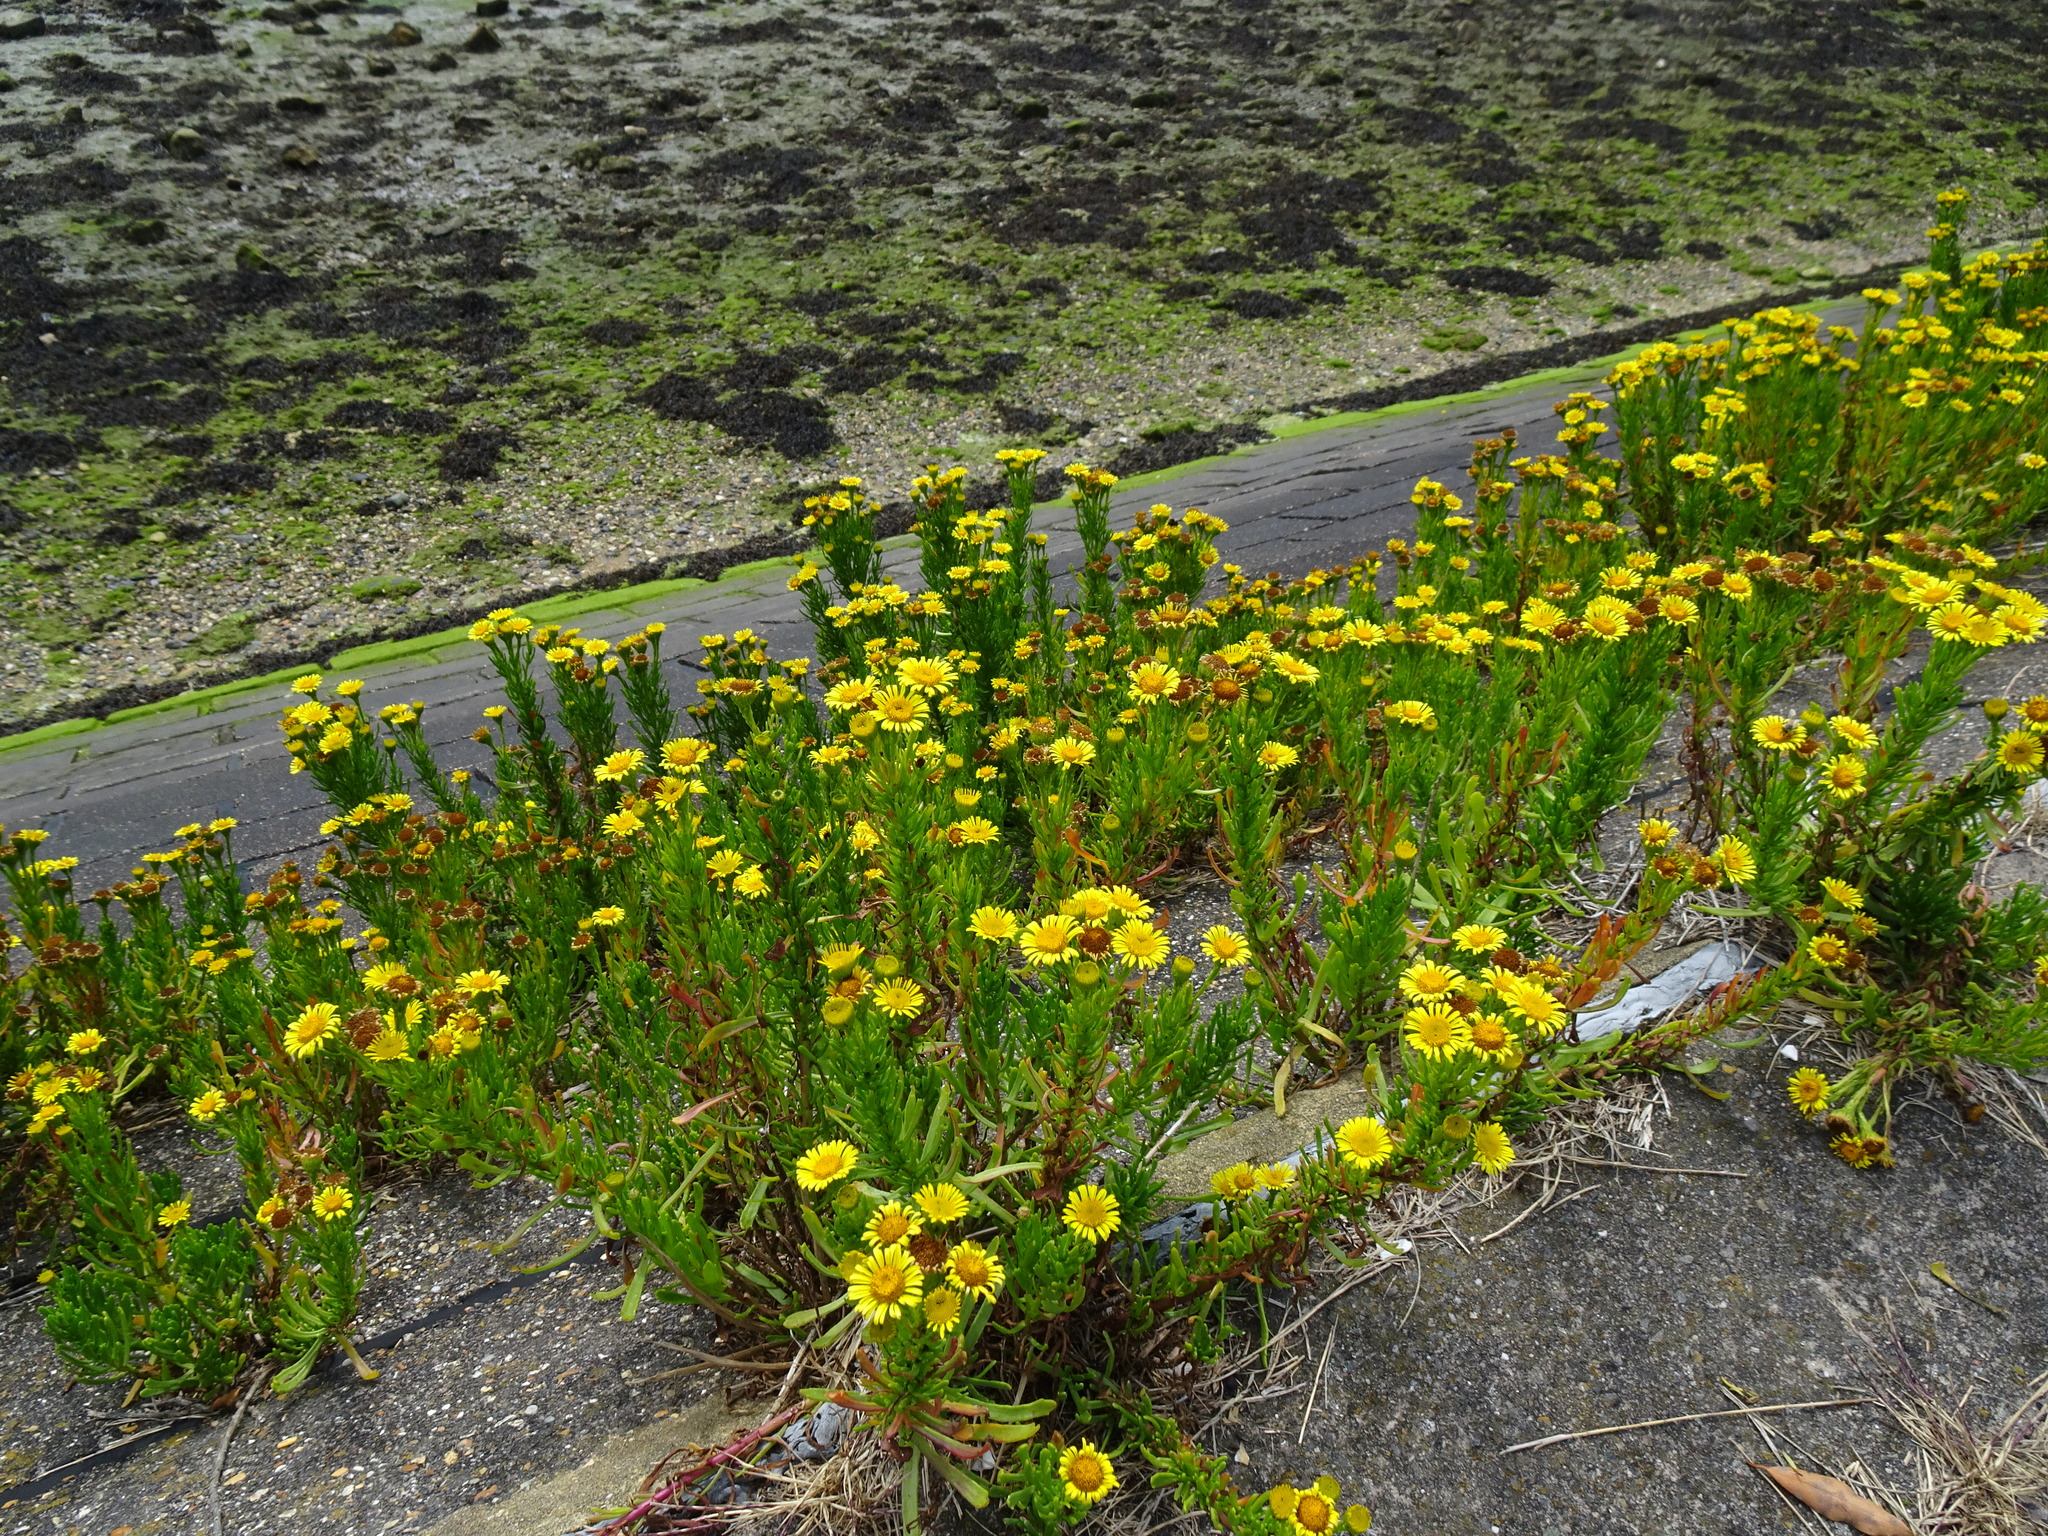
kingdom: Plantae
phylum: Tracheophyta
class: Magnoliopsida
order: Asterales
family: Asteraceae
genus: Limbarda
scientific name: Limbarda crithmoides
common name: Golden samphire
